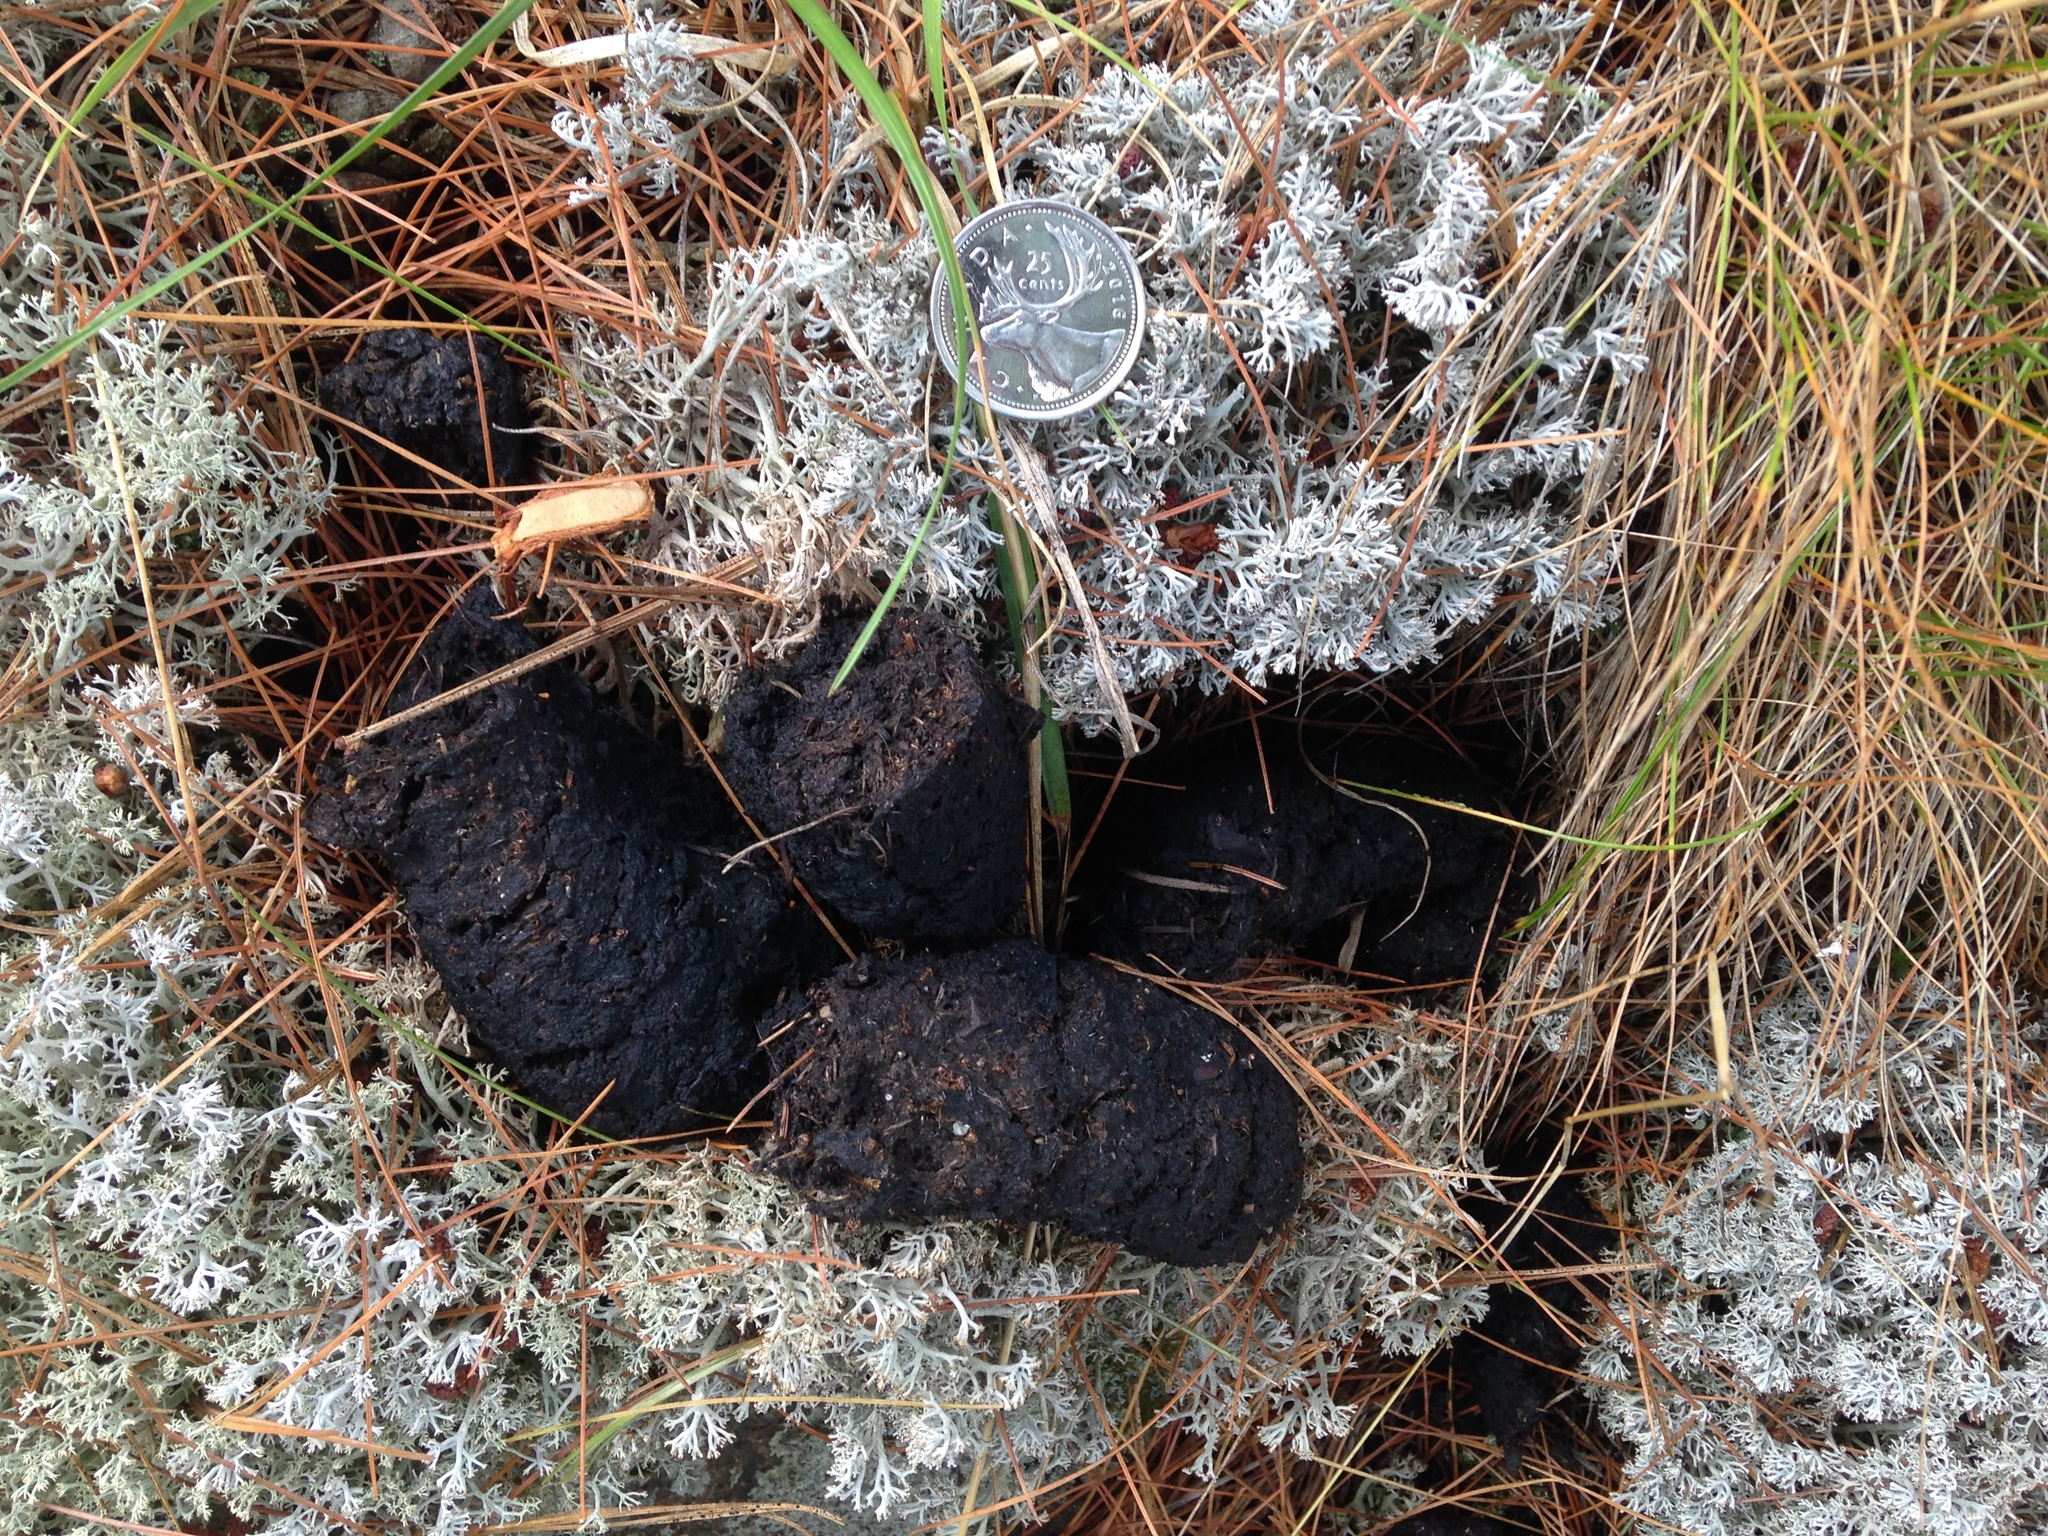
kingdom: Animalia
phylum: Chordata
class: Mammalia
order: Carnivora
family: Ursidae
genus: Ursus
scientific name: Ursus americanus
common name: American black bear
